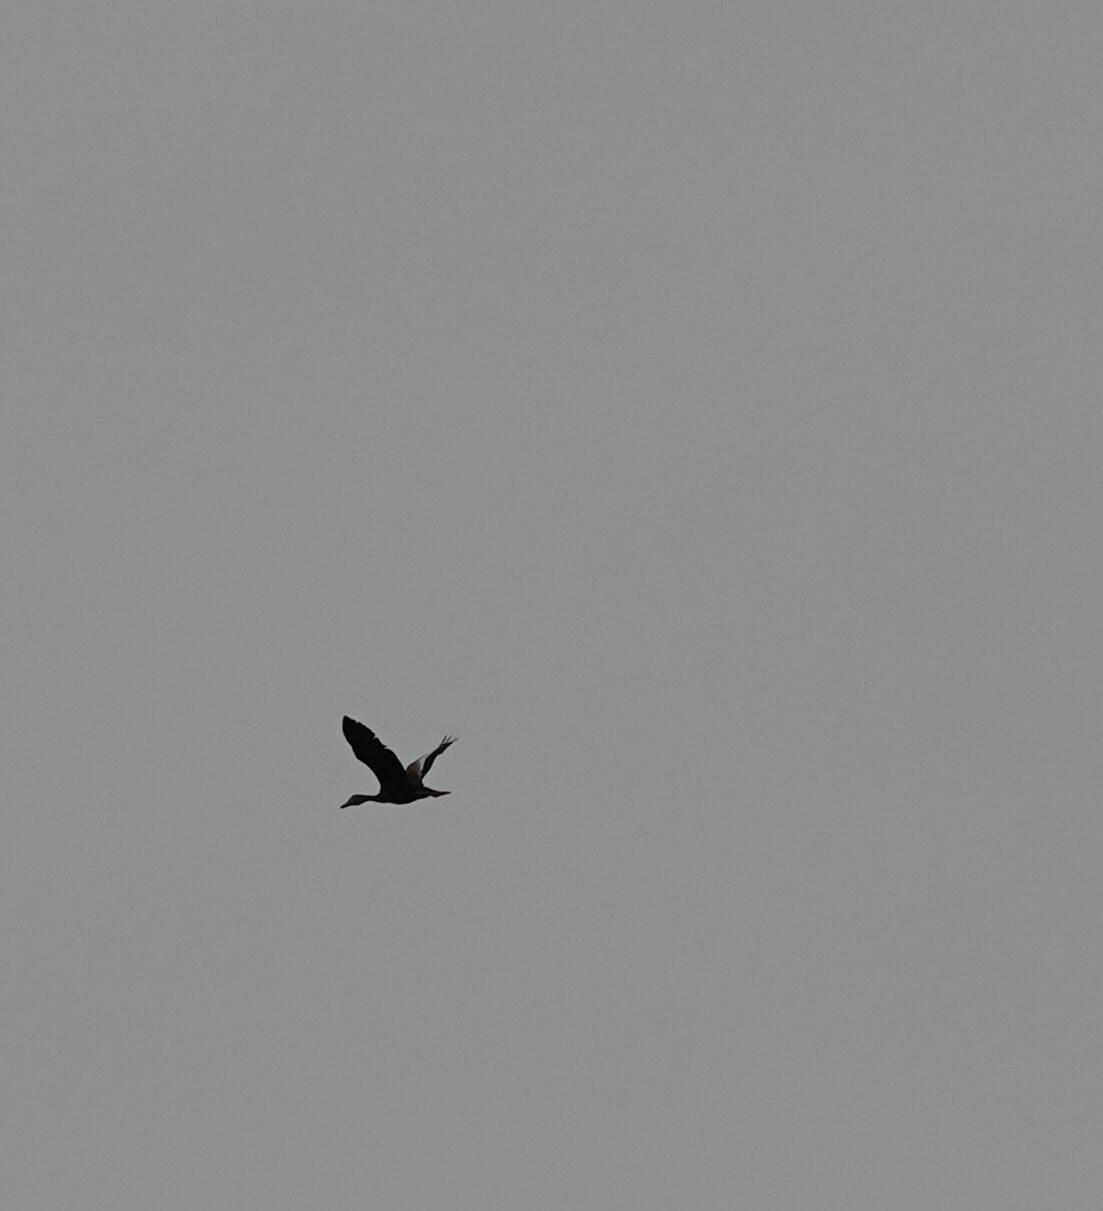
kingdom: Animalia
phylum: Chordata
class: Aves
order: Anseriformes
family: Anatidae
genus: Dendrocygna
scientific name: Dendrocygna autumnalis
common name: Black-bellied whistling duck
